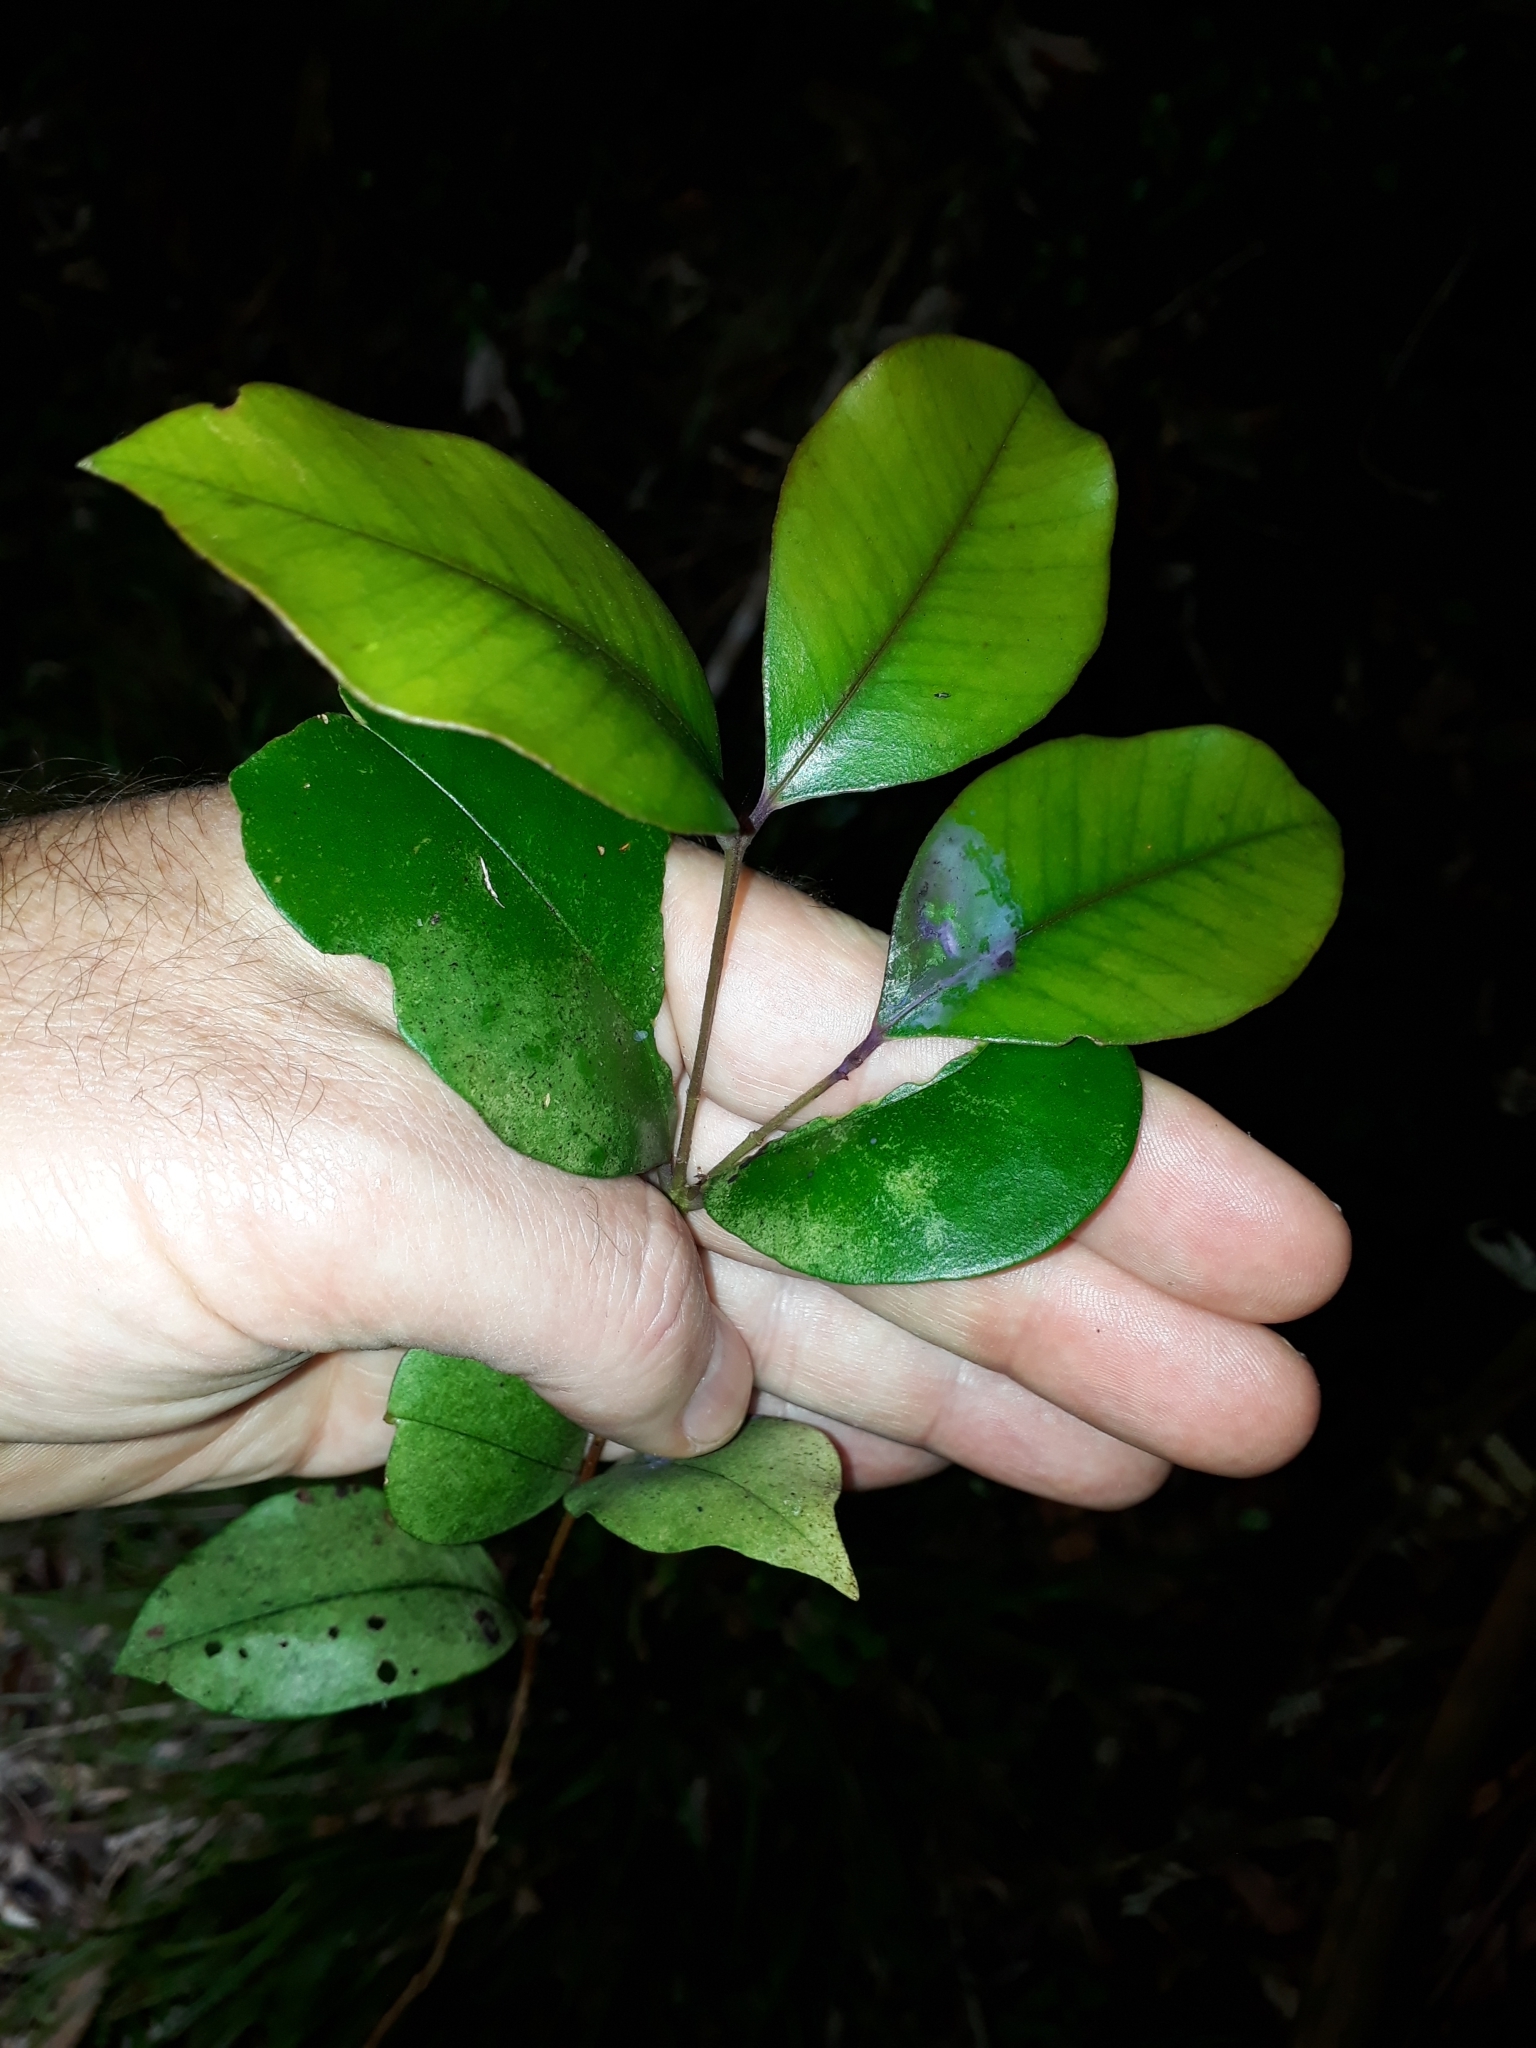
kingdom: Plantae
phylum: Tracheophyta
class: Magnoliopsida
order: Myrtales
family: Myrtaceae
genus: Syzygium
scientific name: Syzygium smithii
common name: Lilly-pilly
